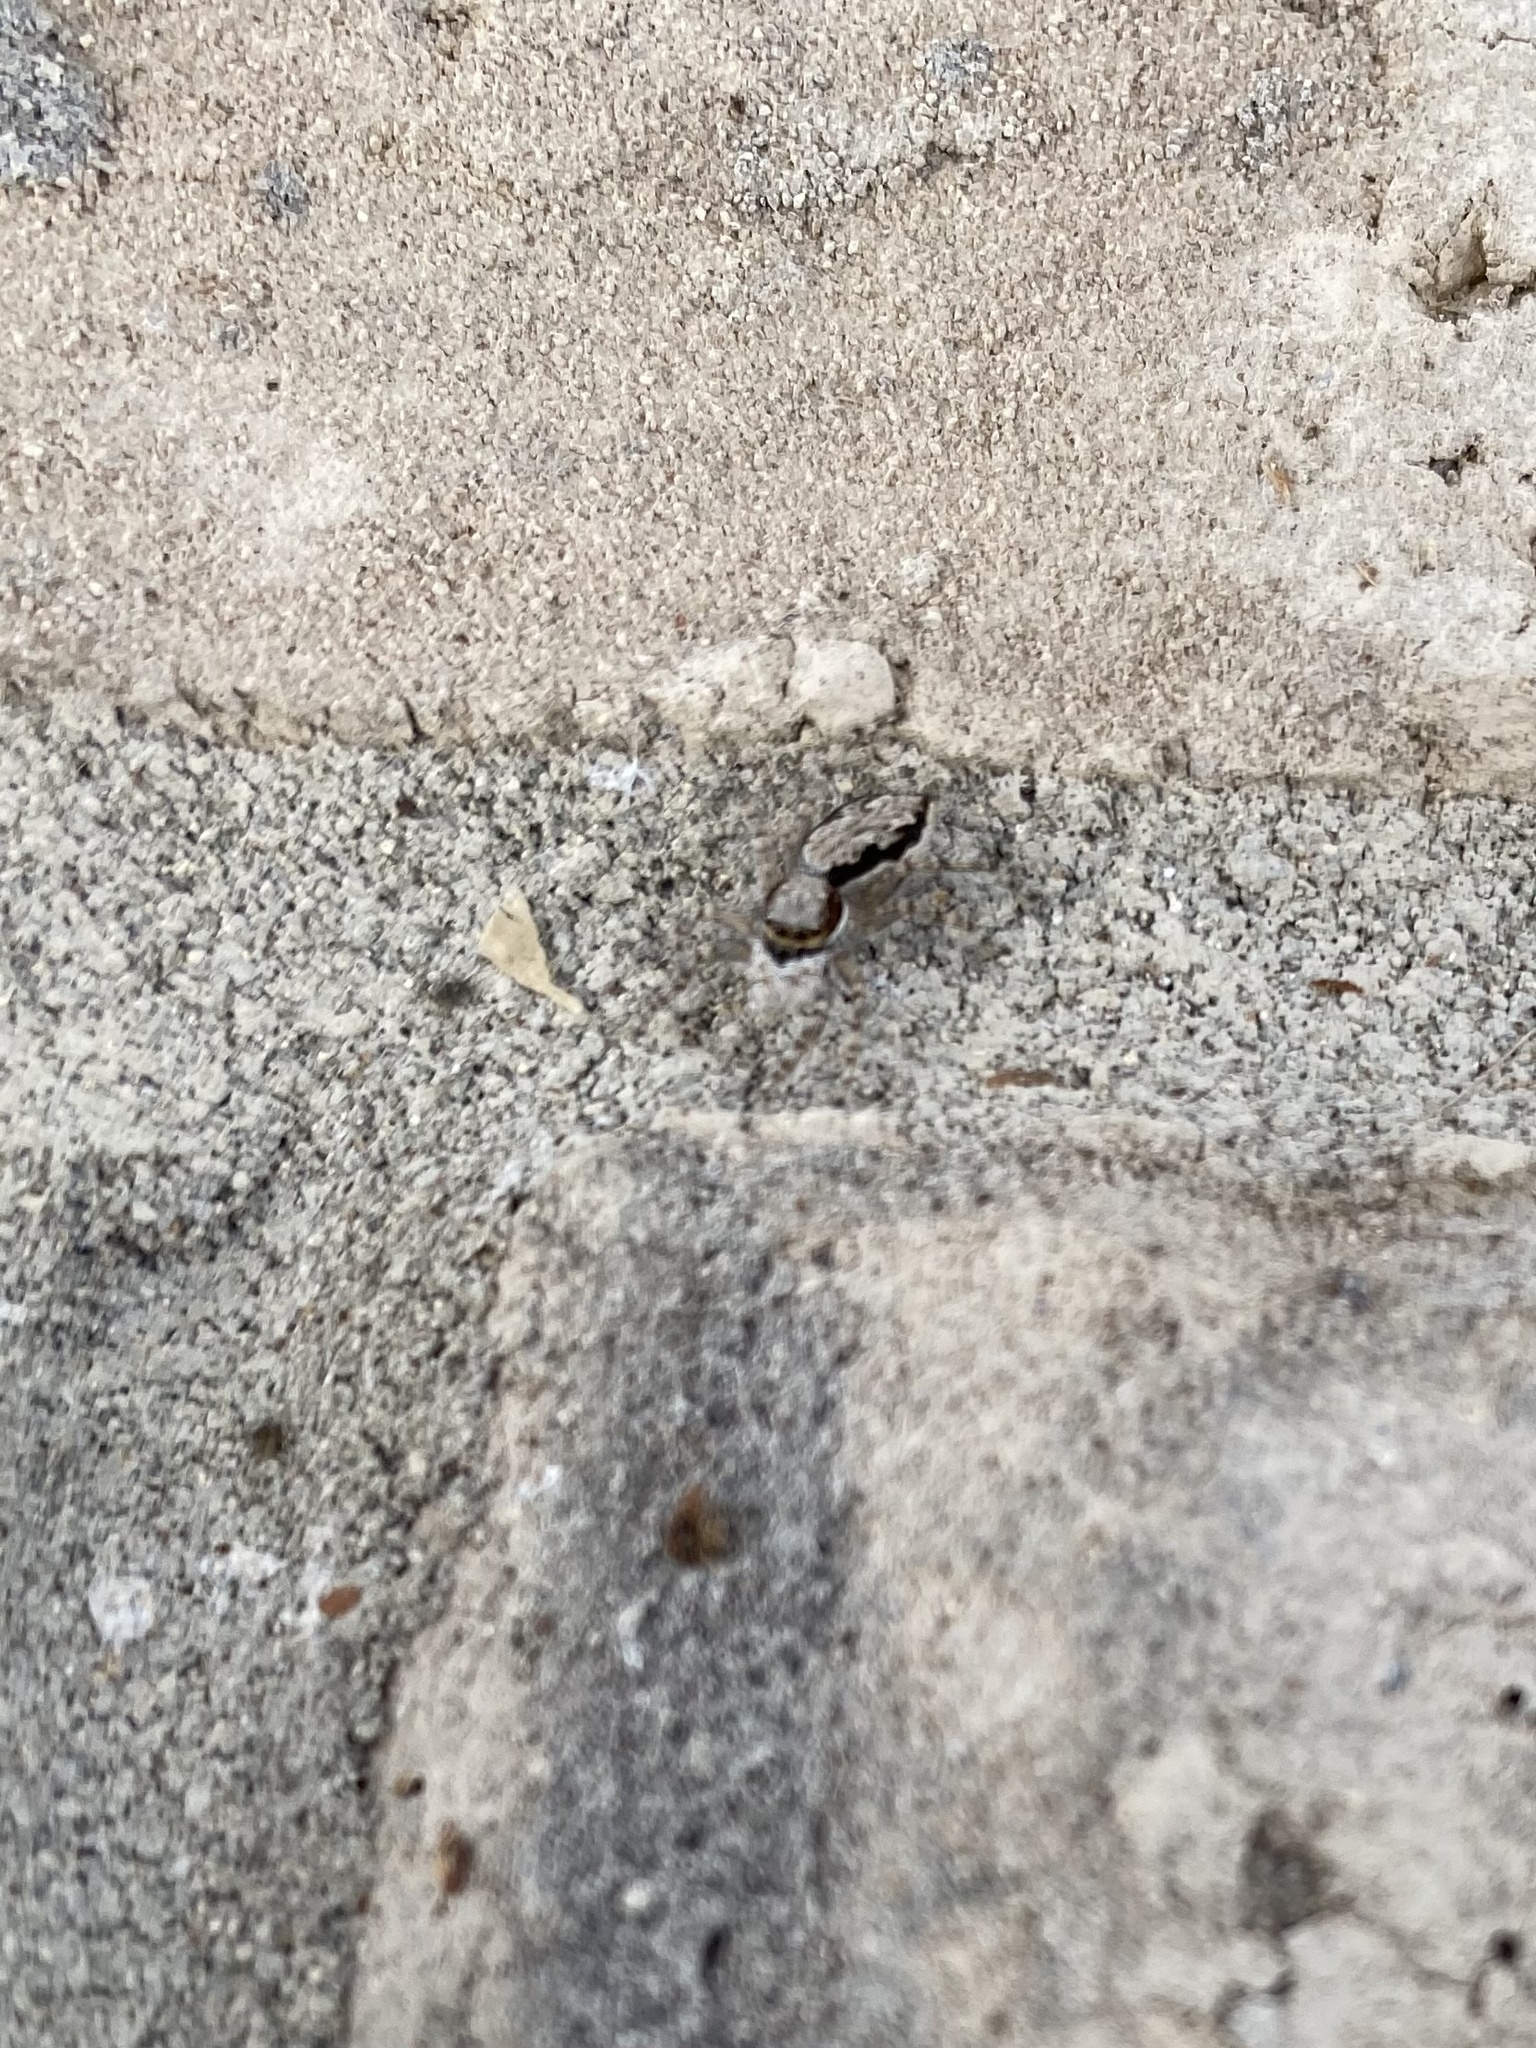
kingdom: Animalia
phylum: Arthropoda
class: Arachnida
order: Araneae
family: Salticidae
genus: Menemerus
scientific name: Menemerus bivittatus
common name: Gray wall jumper
